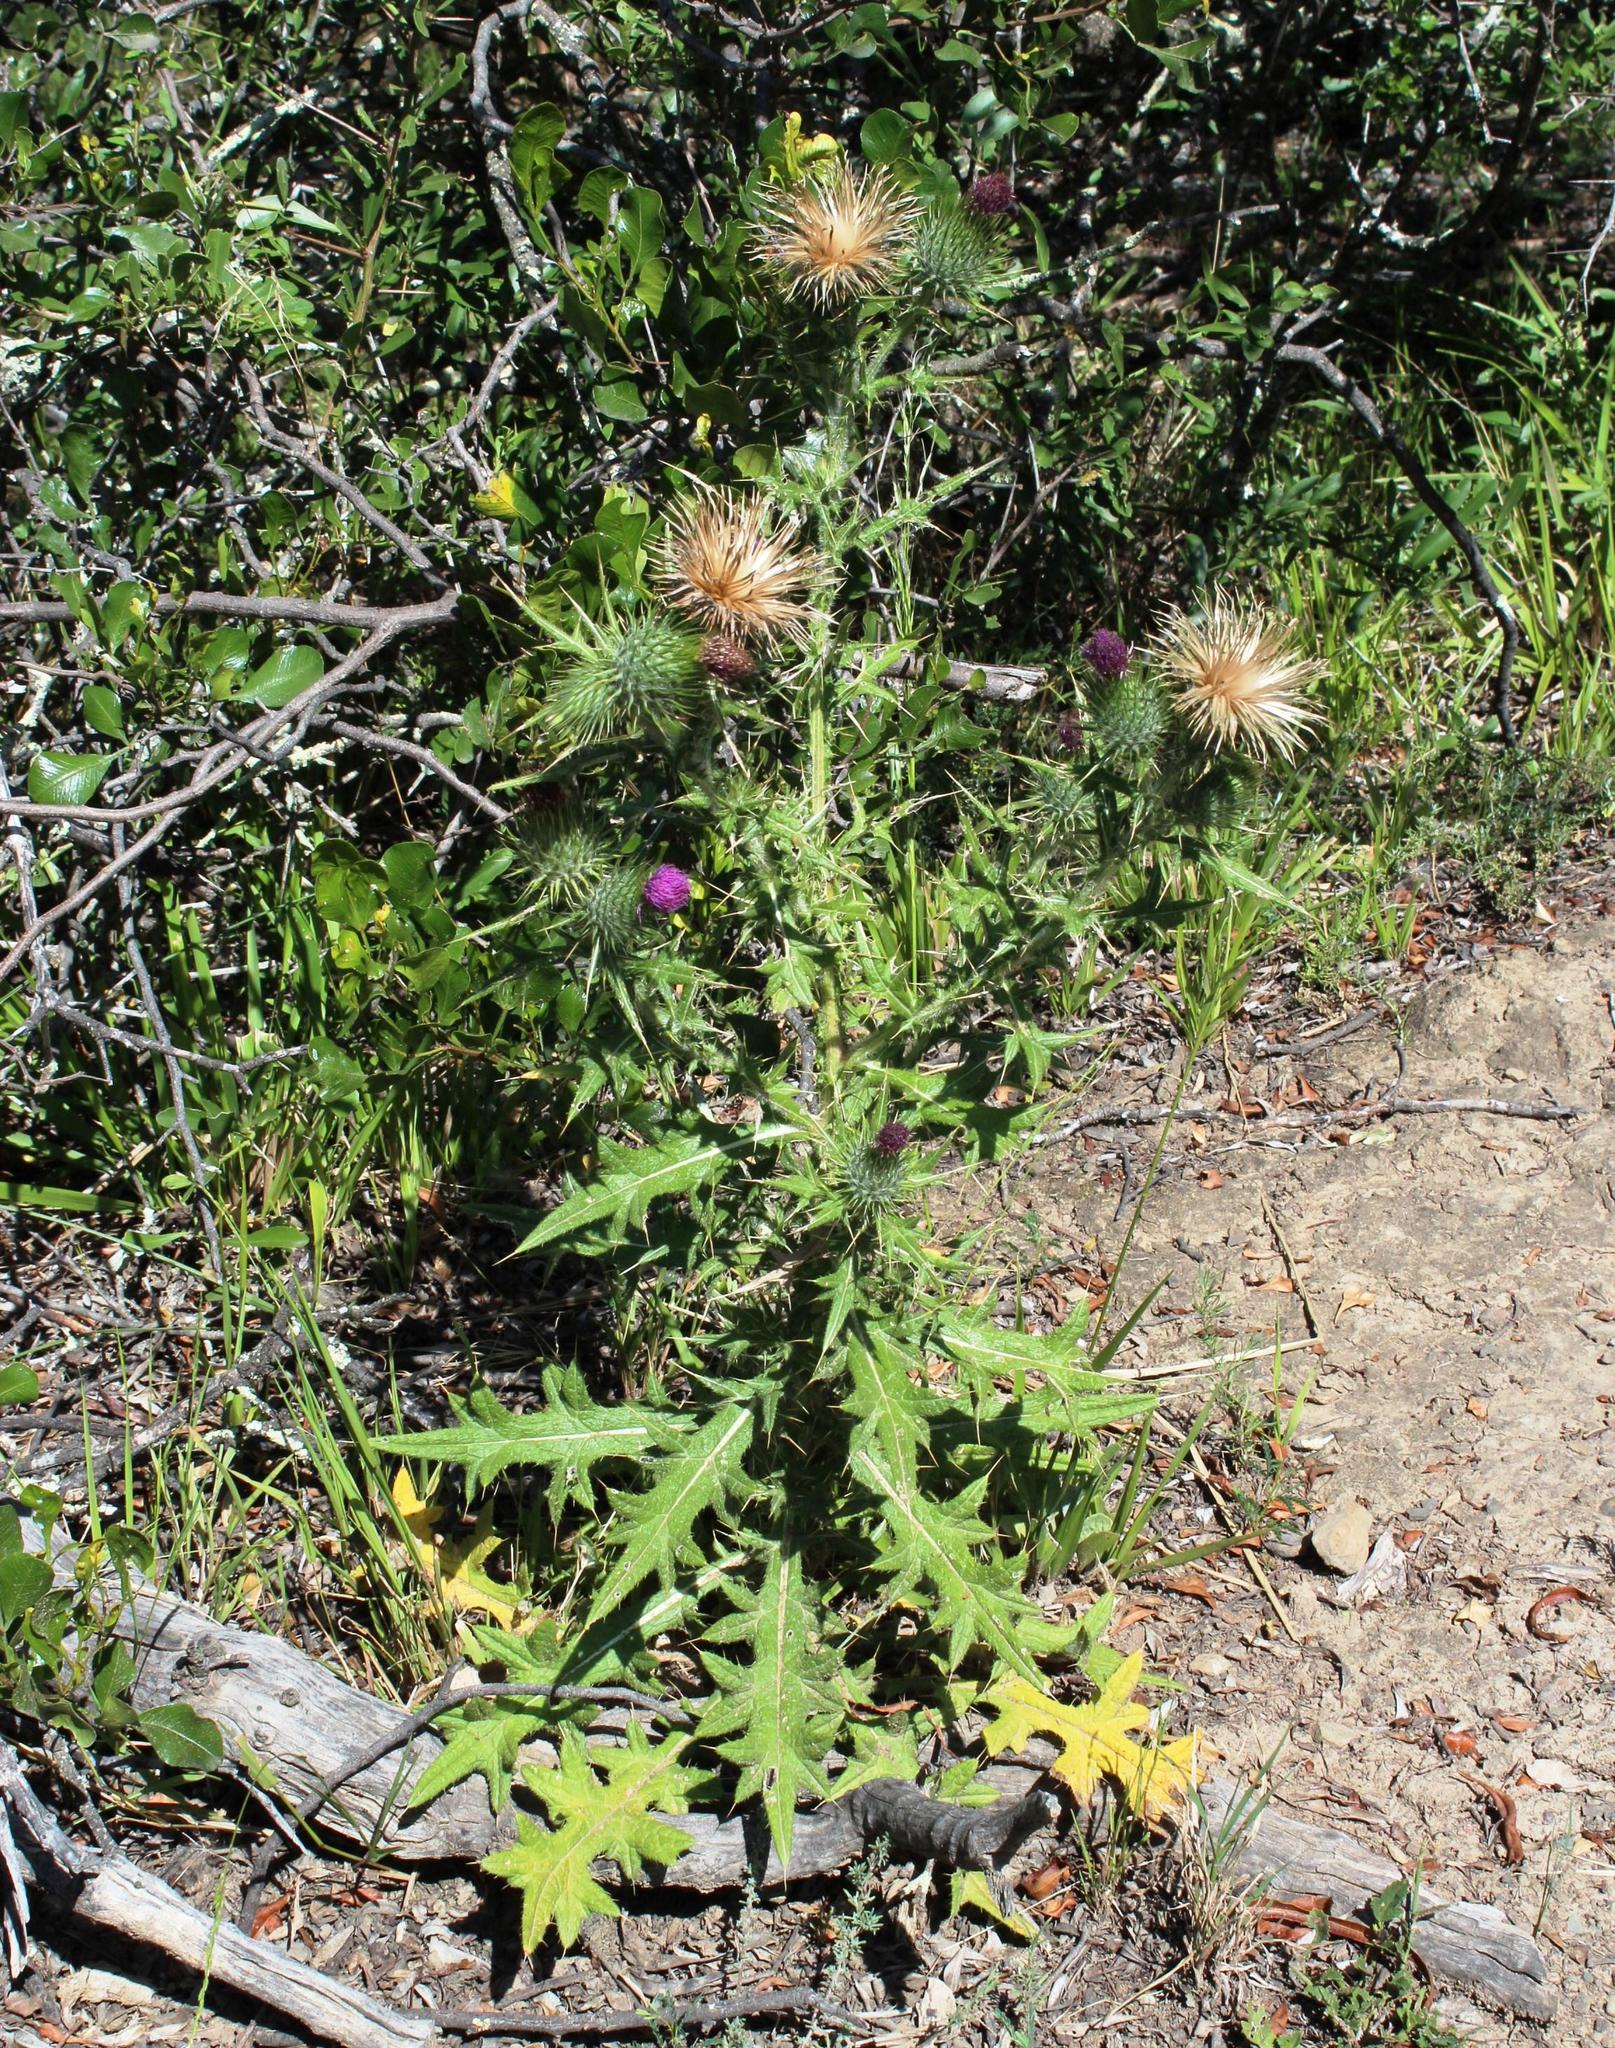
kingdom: Plantae
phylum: Tracheophyta
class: Magnoliopsida
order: Asterales
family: Asteraceae
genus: Cirsium
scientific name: Cirsium vulgare
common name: Bull thistle
